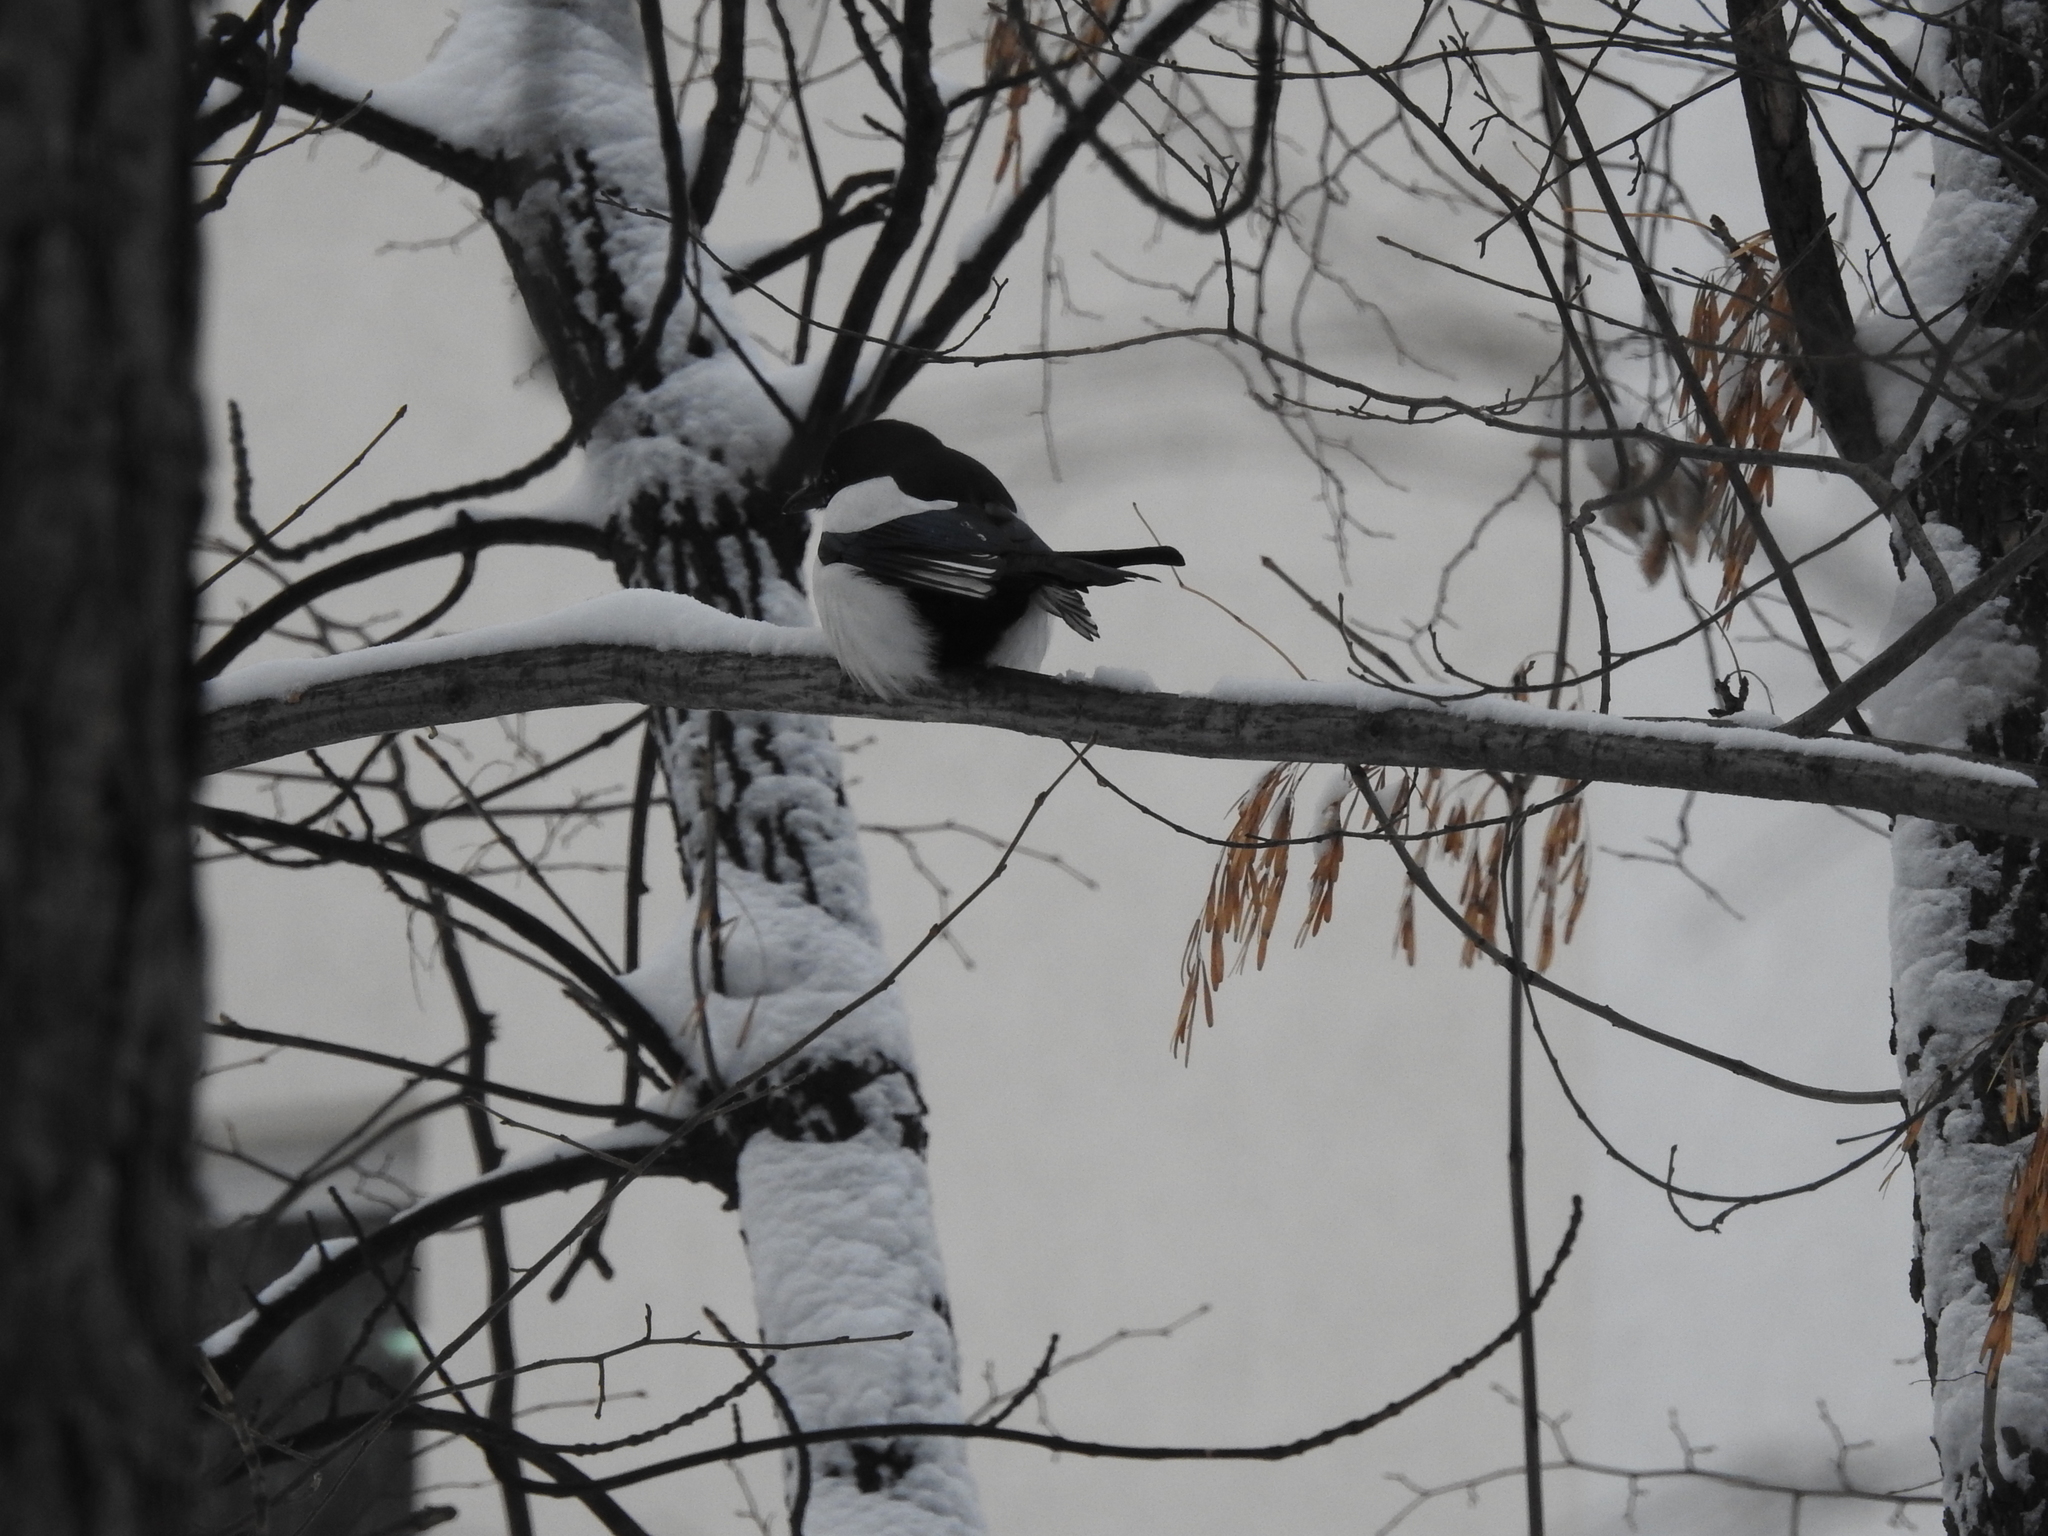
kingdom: Animalia
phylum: Chordata
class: Aves
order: Passeriformes
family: Corvidae
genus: Pica
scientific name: Pica pica
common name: Eurasian magpie
